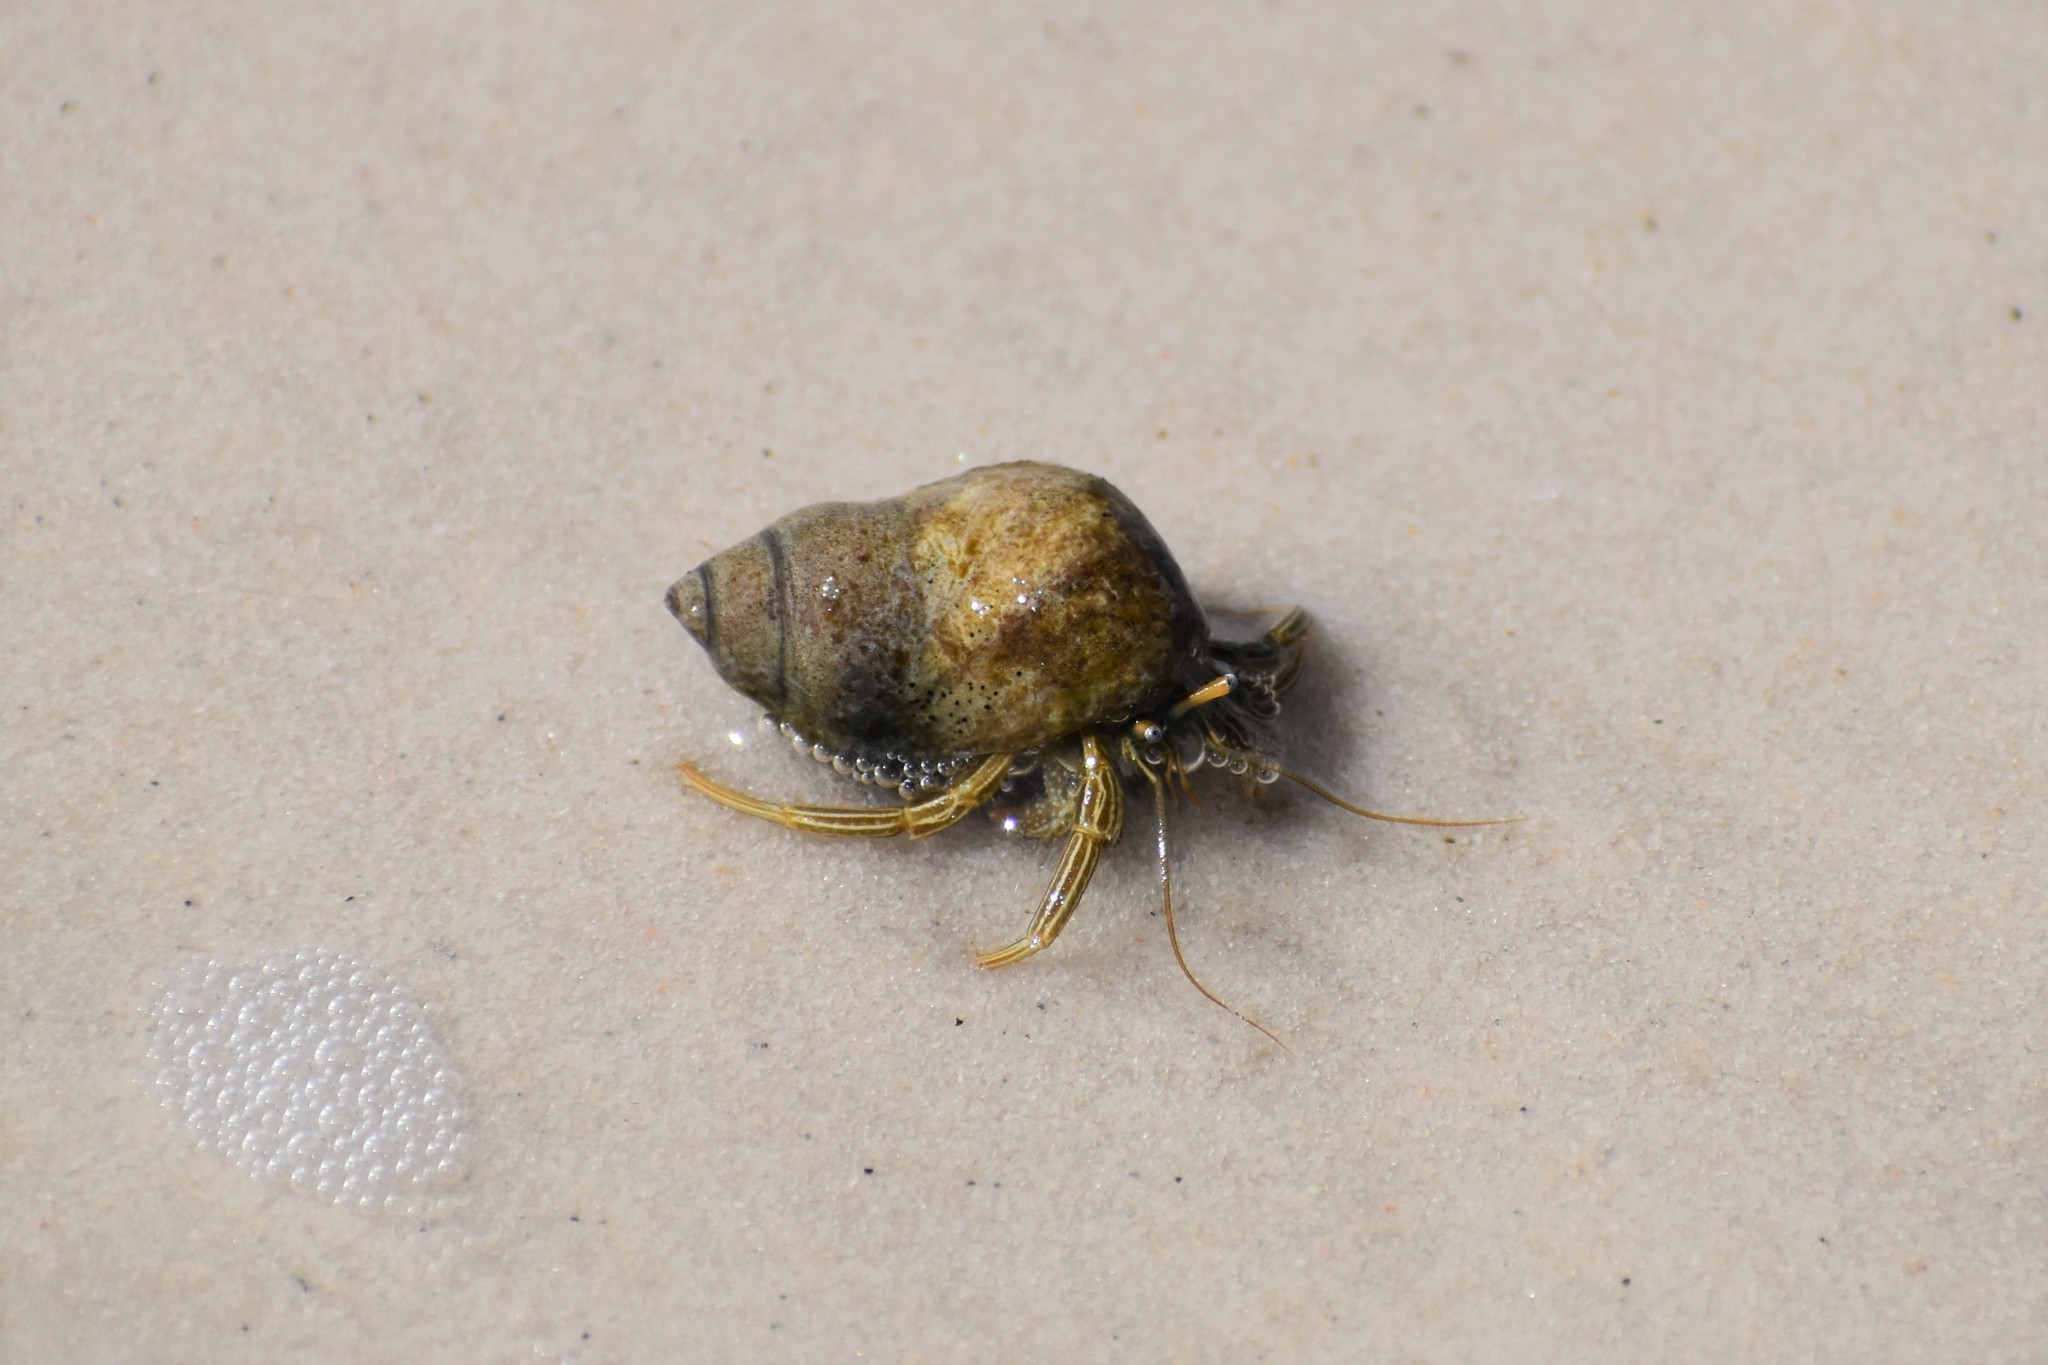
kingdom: Animalia
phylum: Arthropoda
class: Malacostraca
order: Decapoda
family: Diogenidae
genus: Clibanarius
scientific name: Clibanarius vittatus
